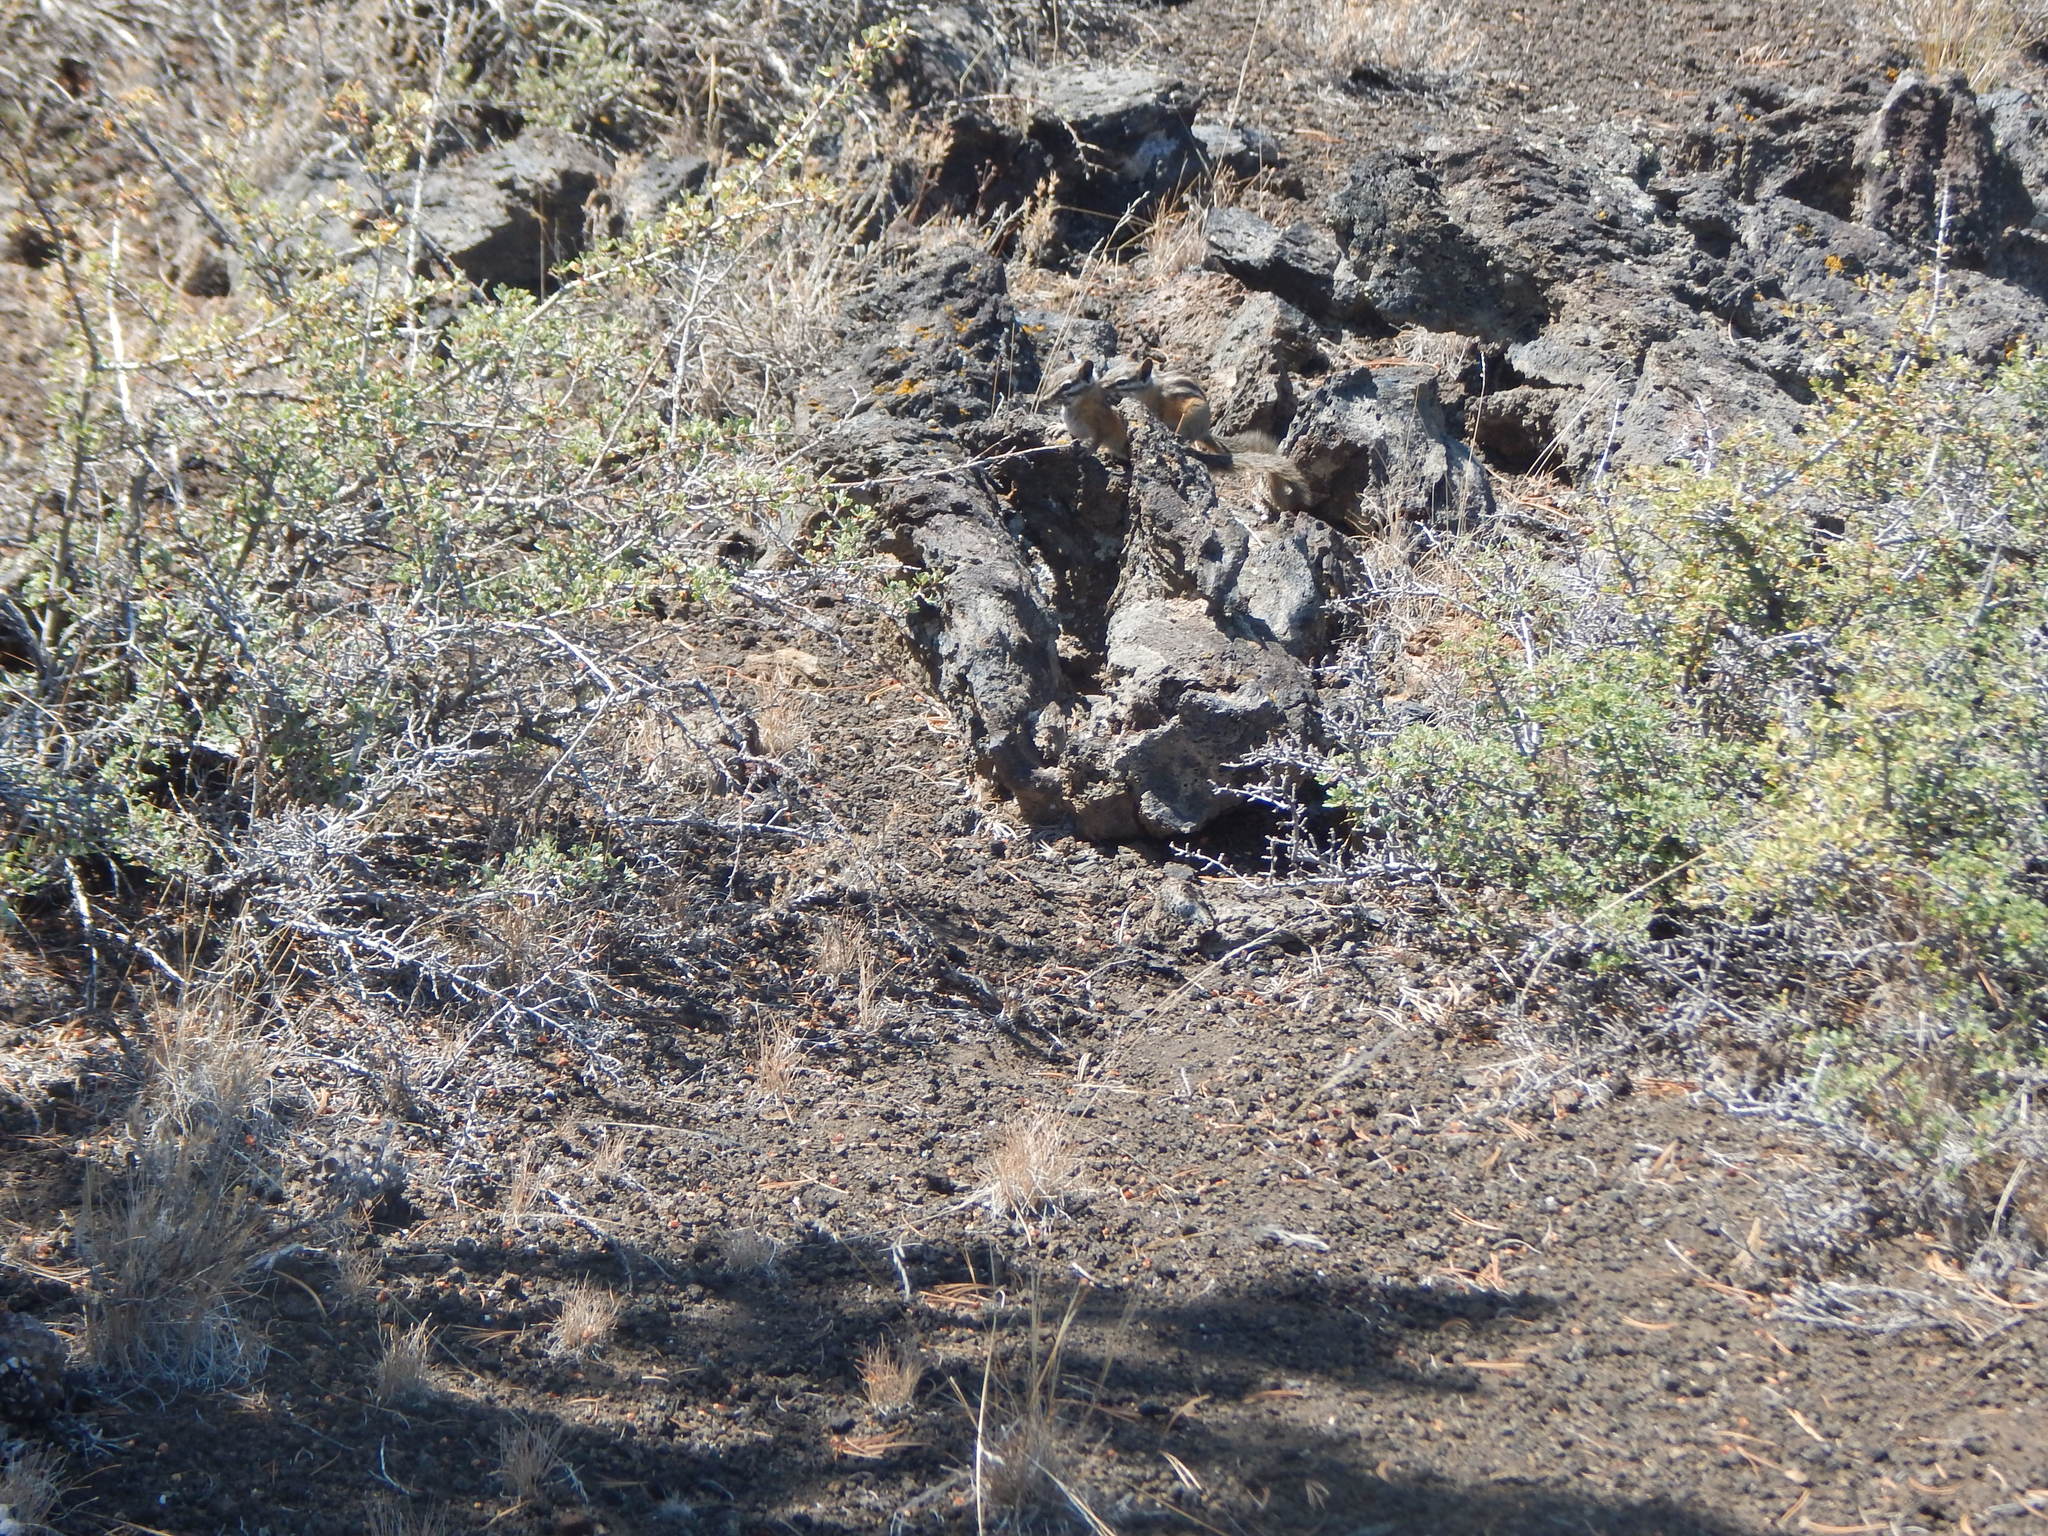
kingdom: Animalia
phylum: Chordata
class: Mammalia
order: Rodentia
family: Sciuridae
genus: Tamias
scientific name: Tamias minimus
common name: Least chipmunk
